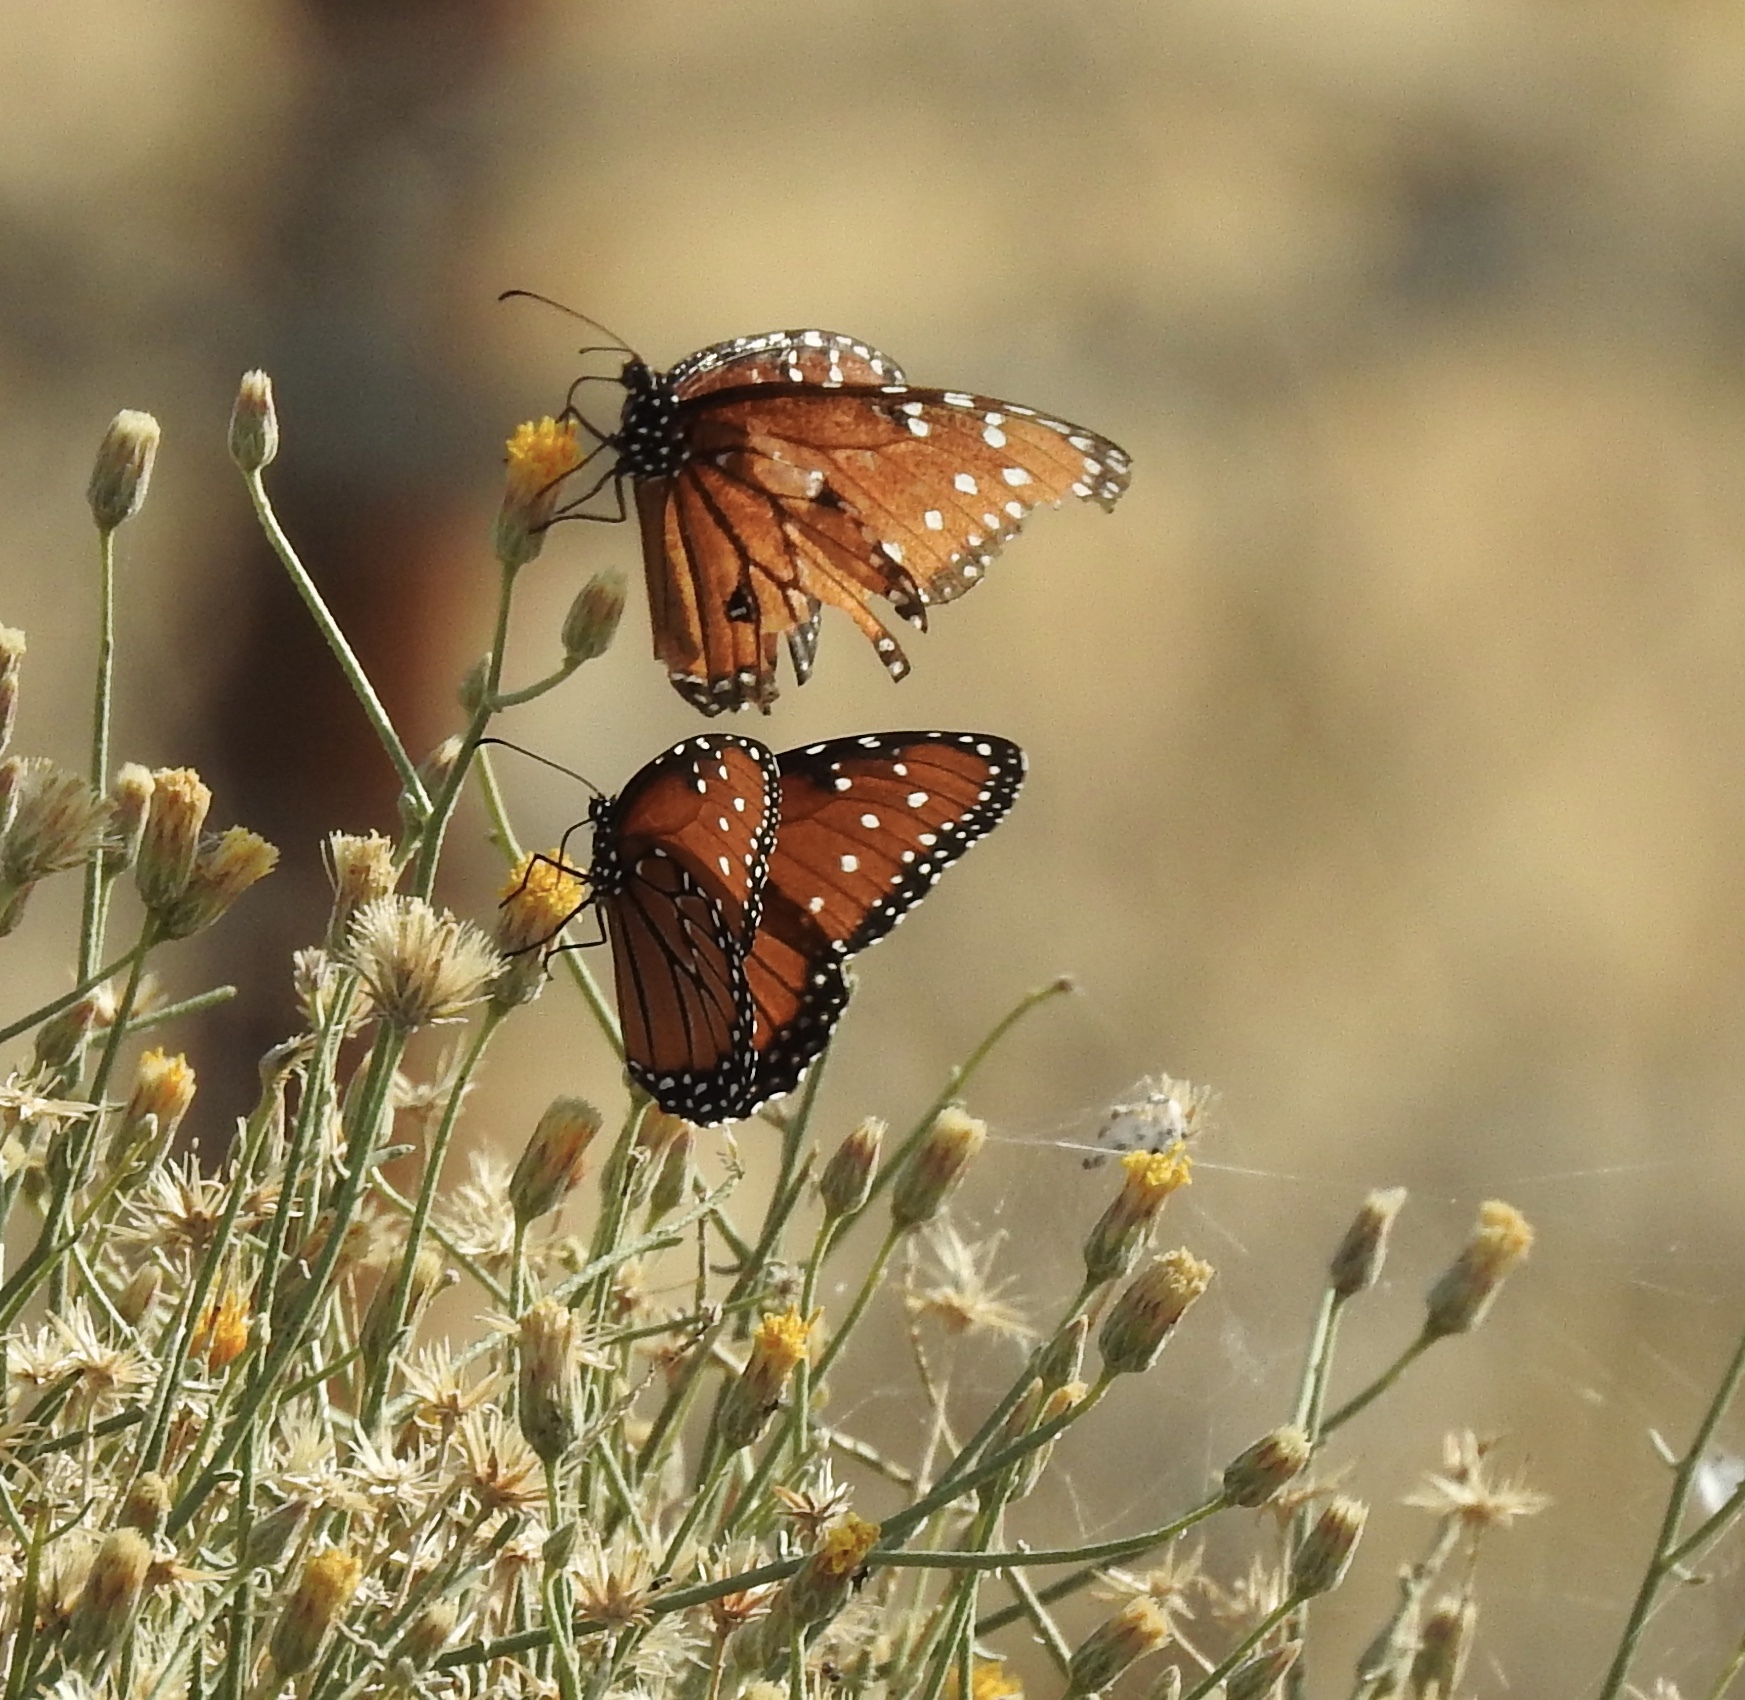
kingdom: Animalia
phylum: Arthropoda
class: Insecta
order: Lepidoptera
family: Nymphalidae
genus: Danaus
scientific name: Danaus gilippus
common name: Queen
